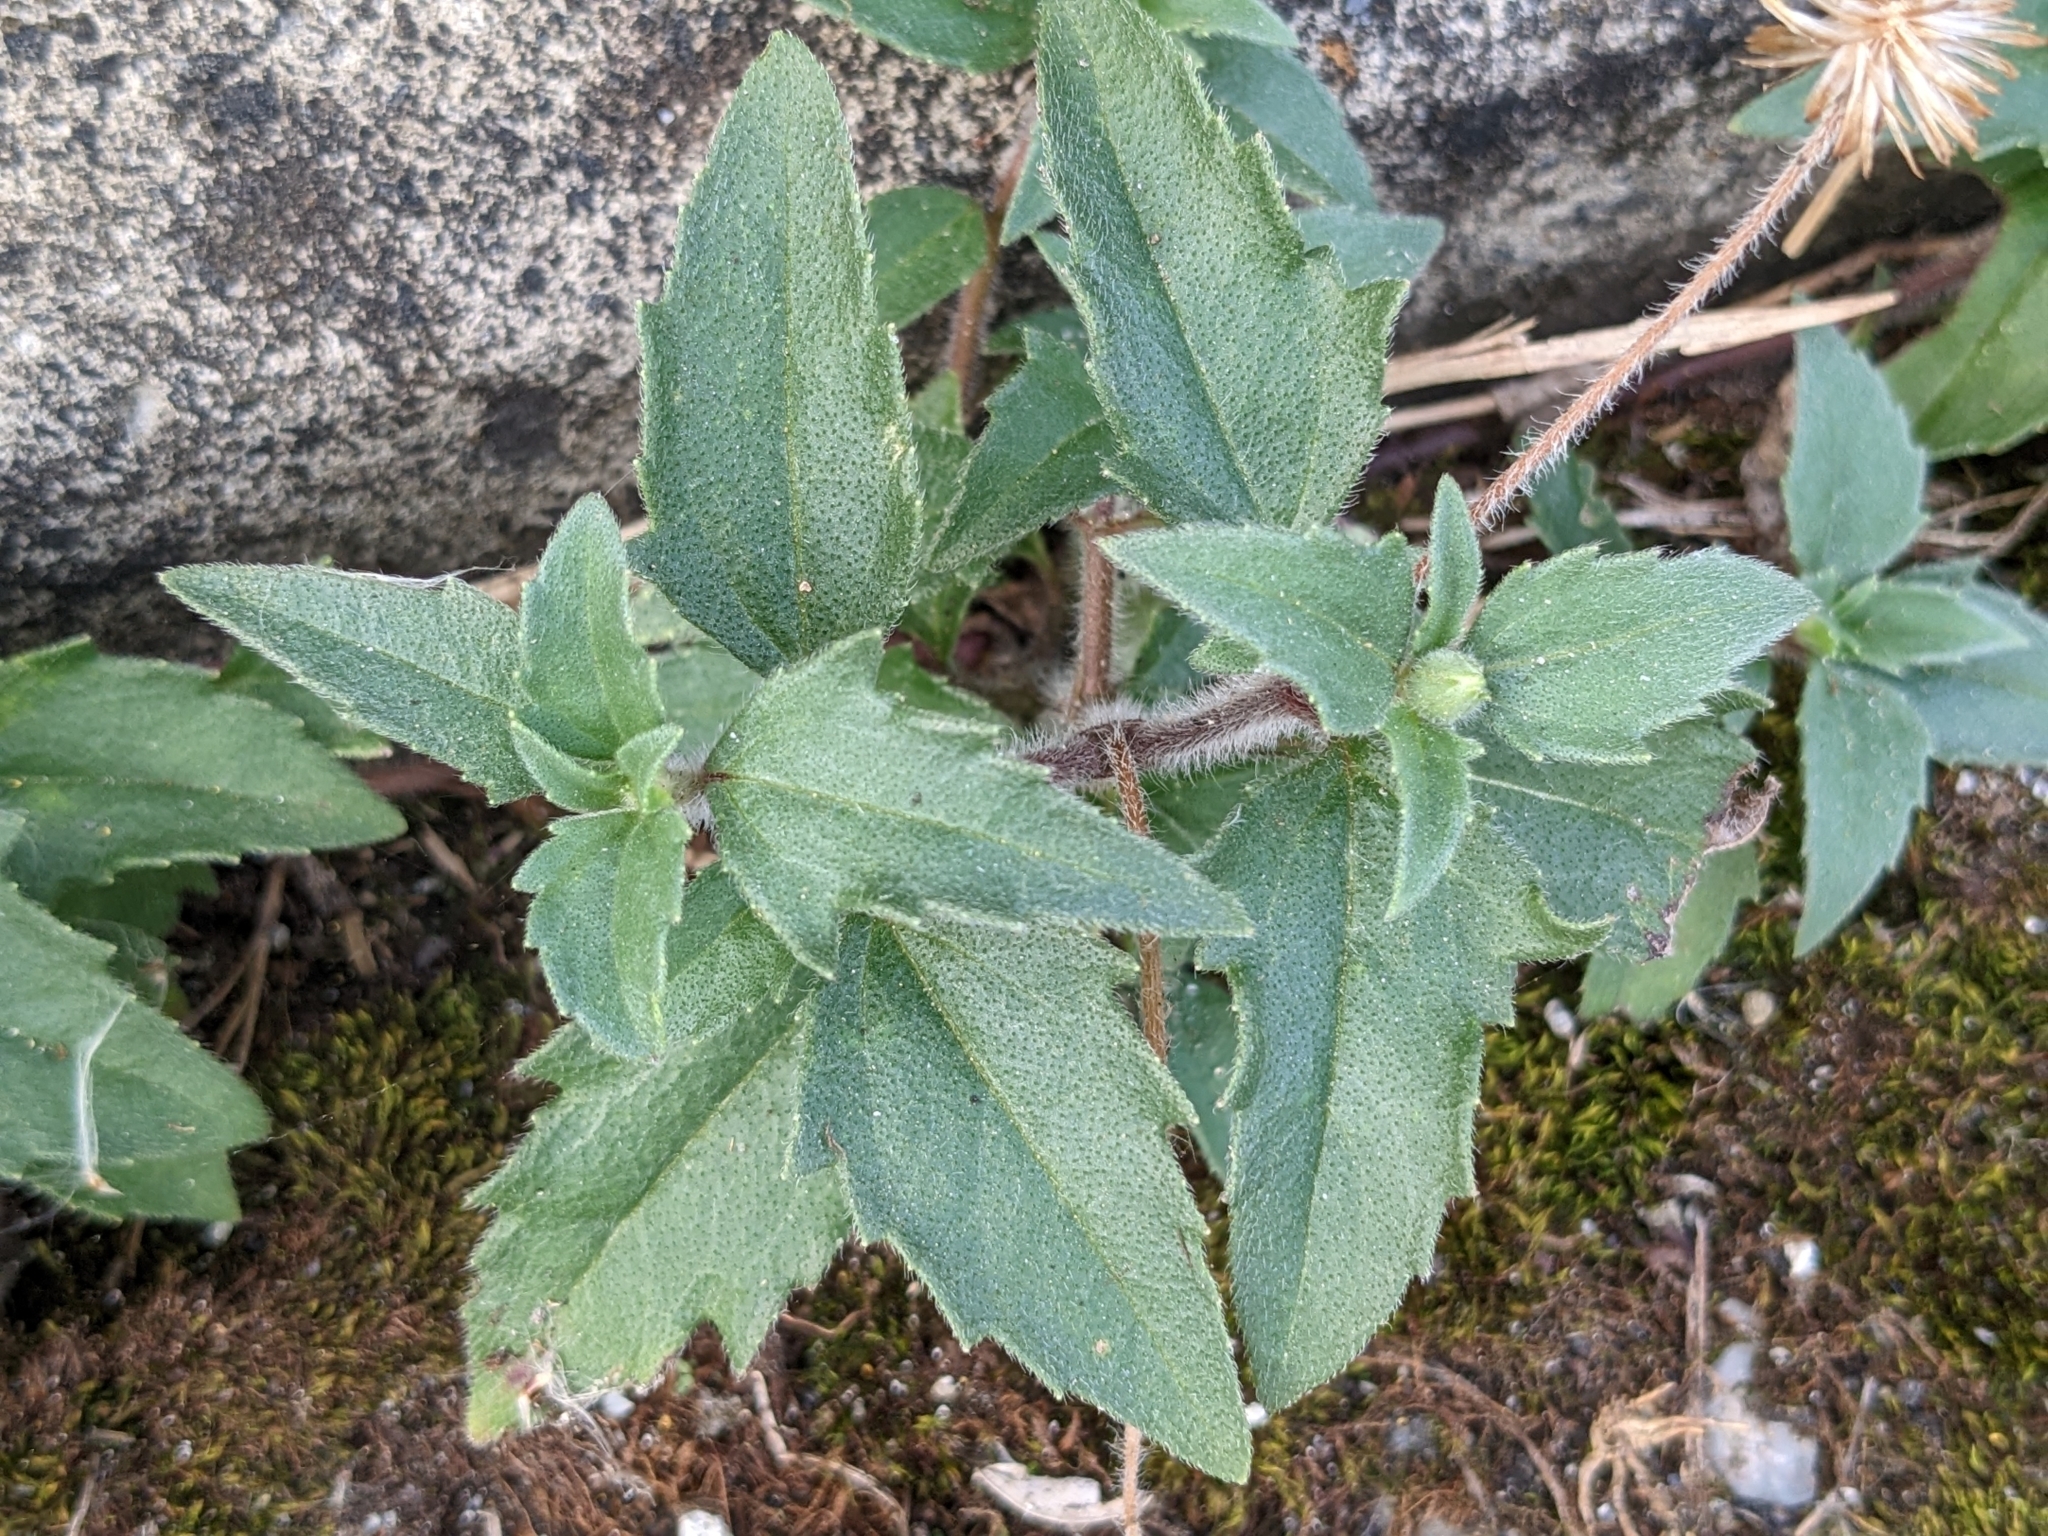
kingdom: Plantae
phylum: Tracheophyta
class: Magnoliopsida
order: Asterales
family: Asteraceae
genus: Tridax
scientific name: Tridax procumbens
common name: Coatbuttons
